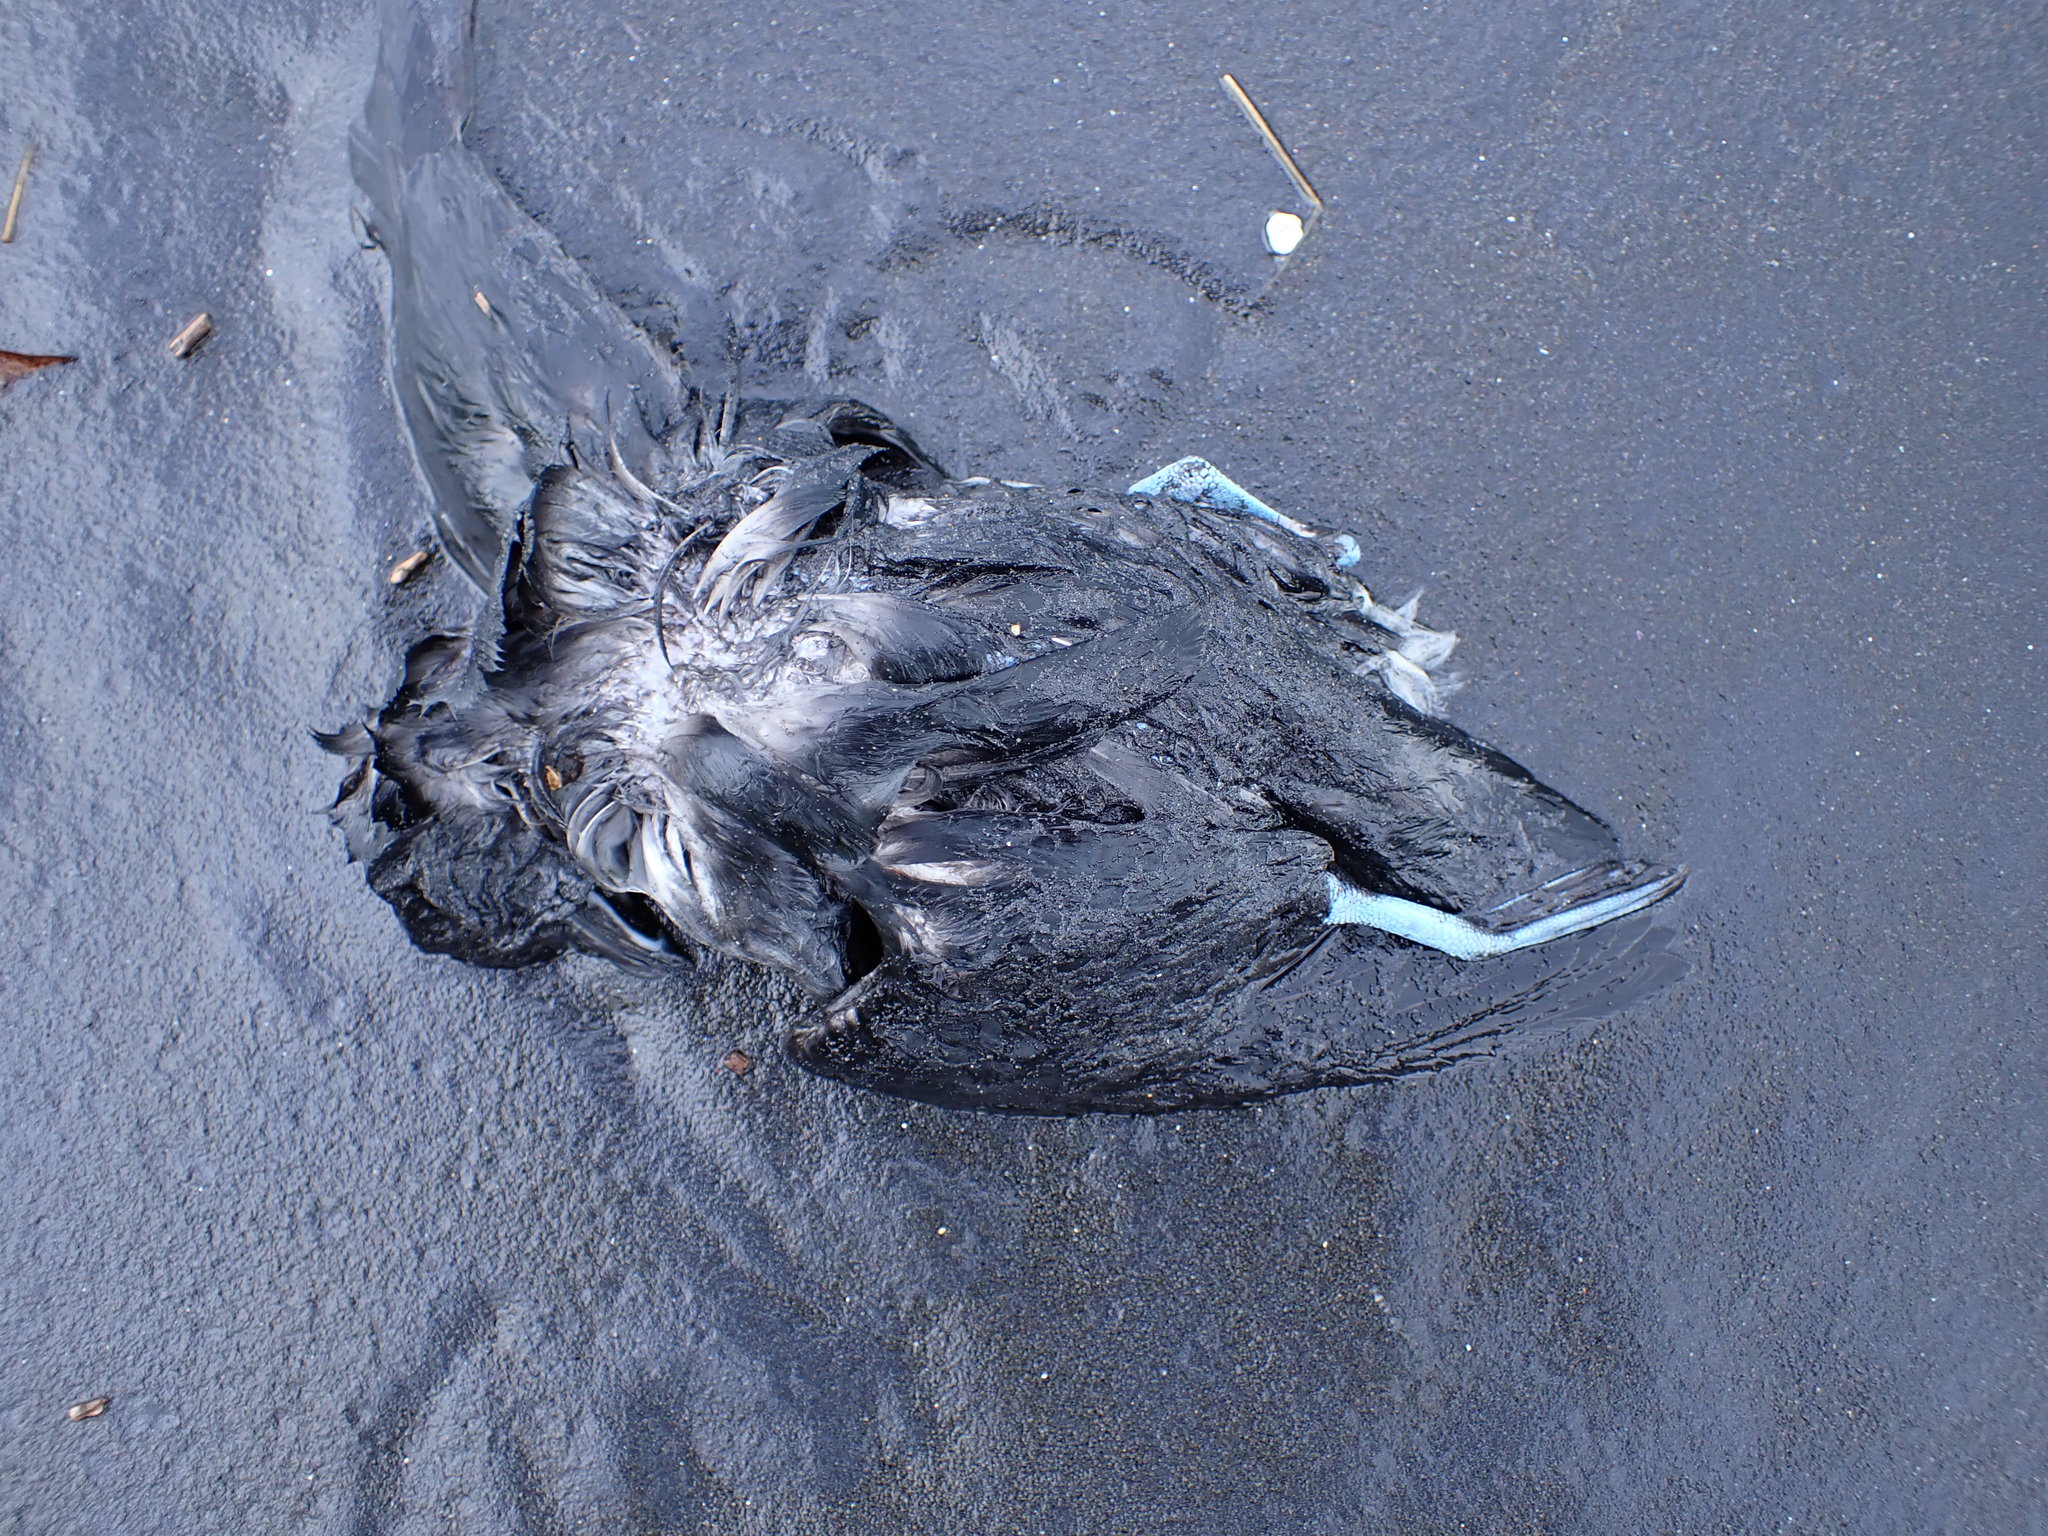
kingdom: Animalia
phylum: Chordata
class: Aves
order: Procellariiformes
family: Pelecanoididae
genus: Pelecanoides
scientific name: Pelecanoides urinatrix
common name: Common diving-petrel
